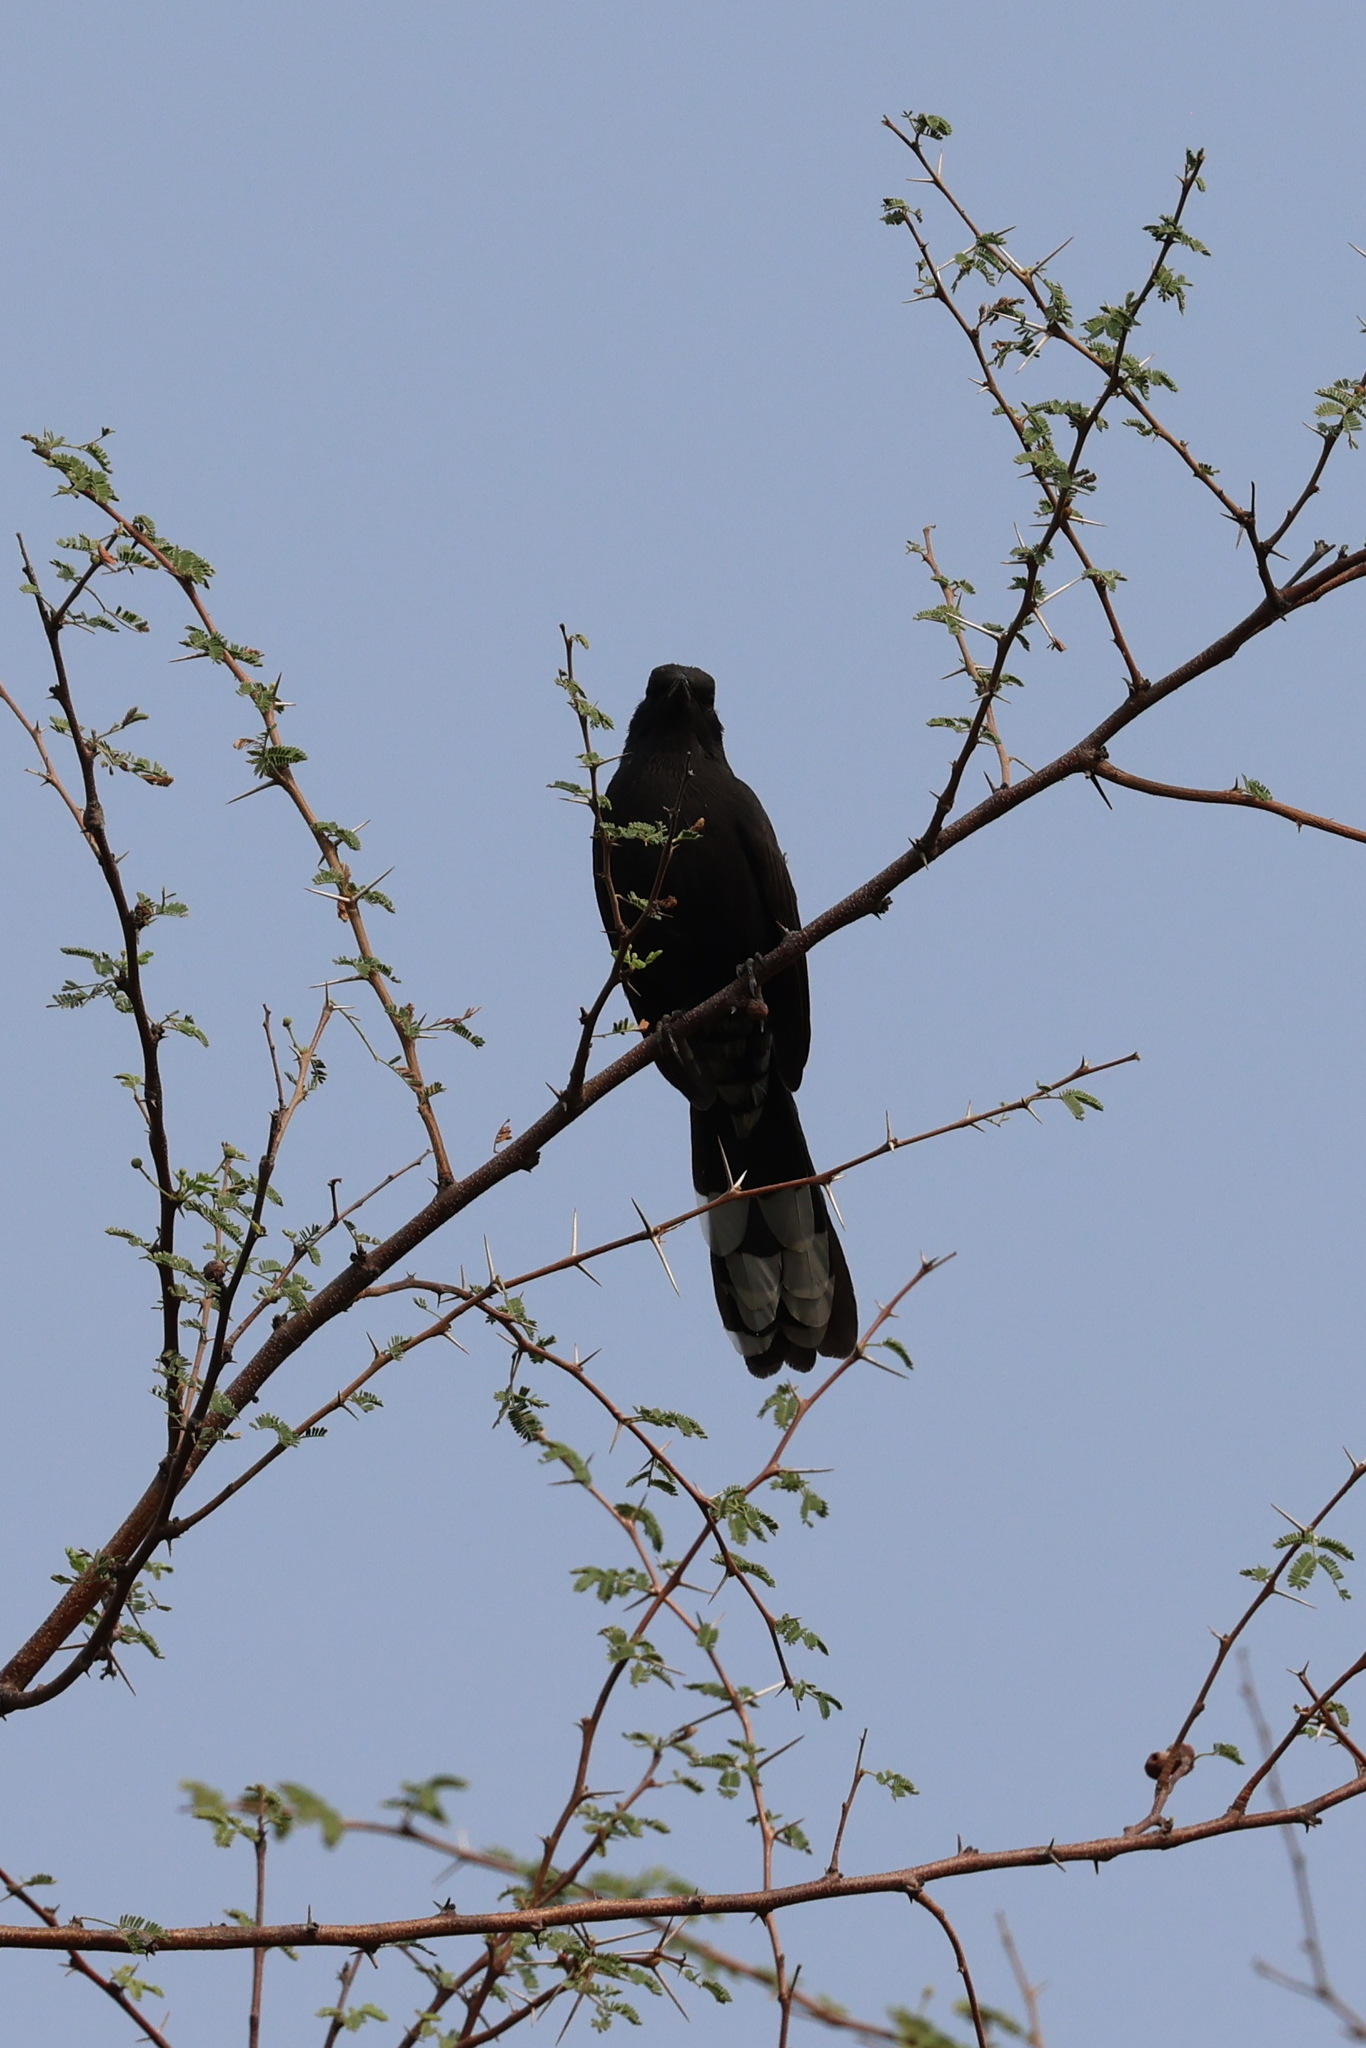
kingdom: Animalia
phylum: Chordata
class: Aves
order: Passeriformes
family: Muscicapidae
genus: Cercotrichas
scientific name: Cercotrichas podobe
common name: Black scrub robin
